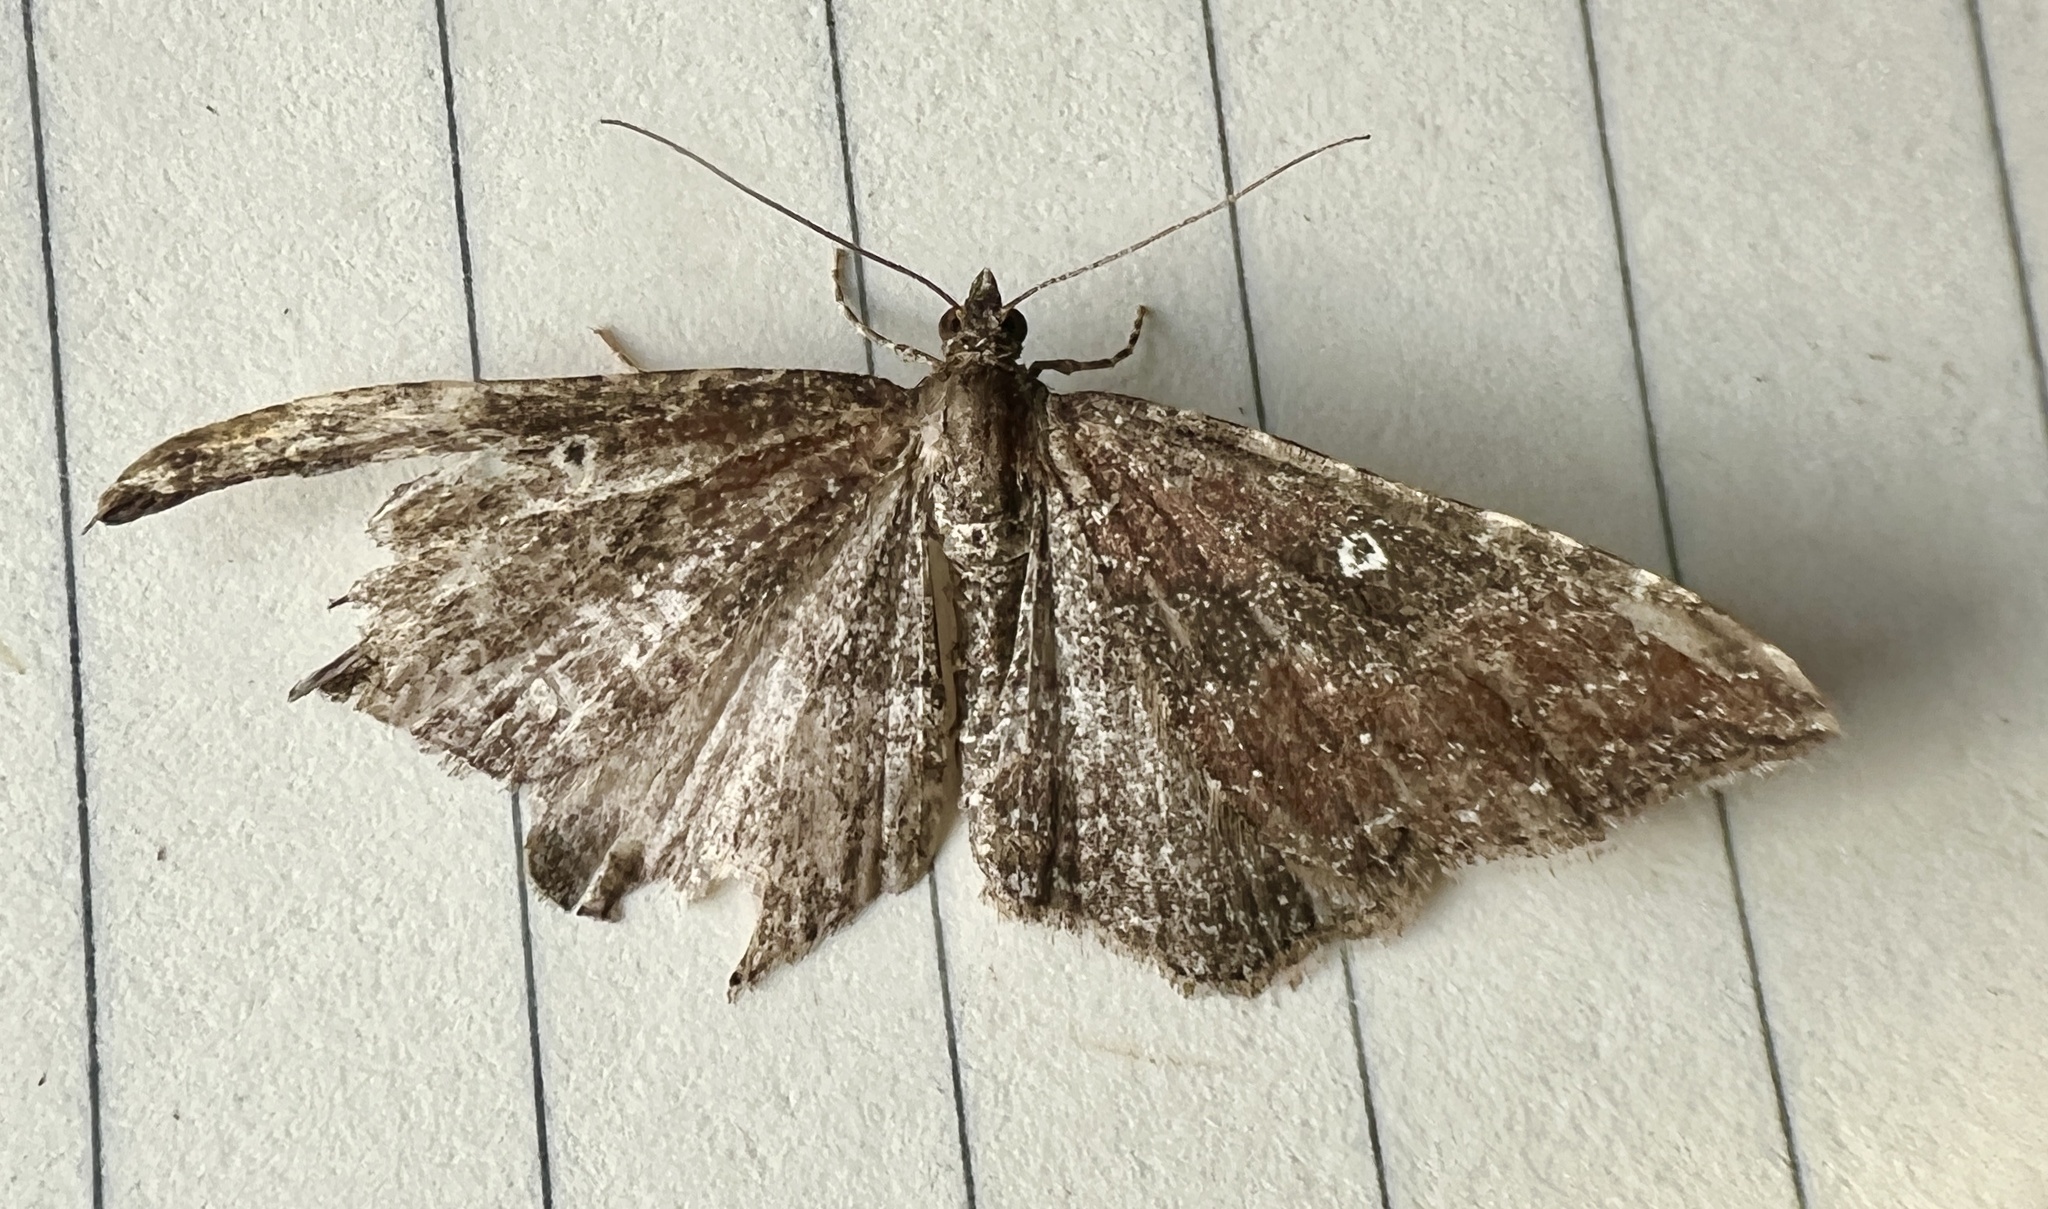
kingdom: Animalia
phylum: Arthropoda
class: Insecta
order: Lepidoptera
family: Geometridae
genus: Orthonama
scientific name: Orthonama obstipata
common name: The gem
